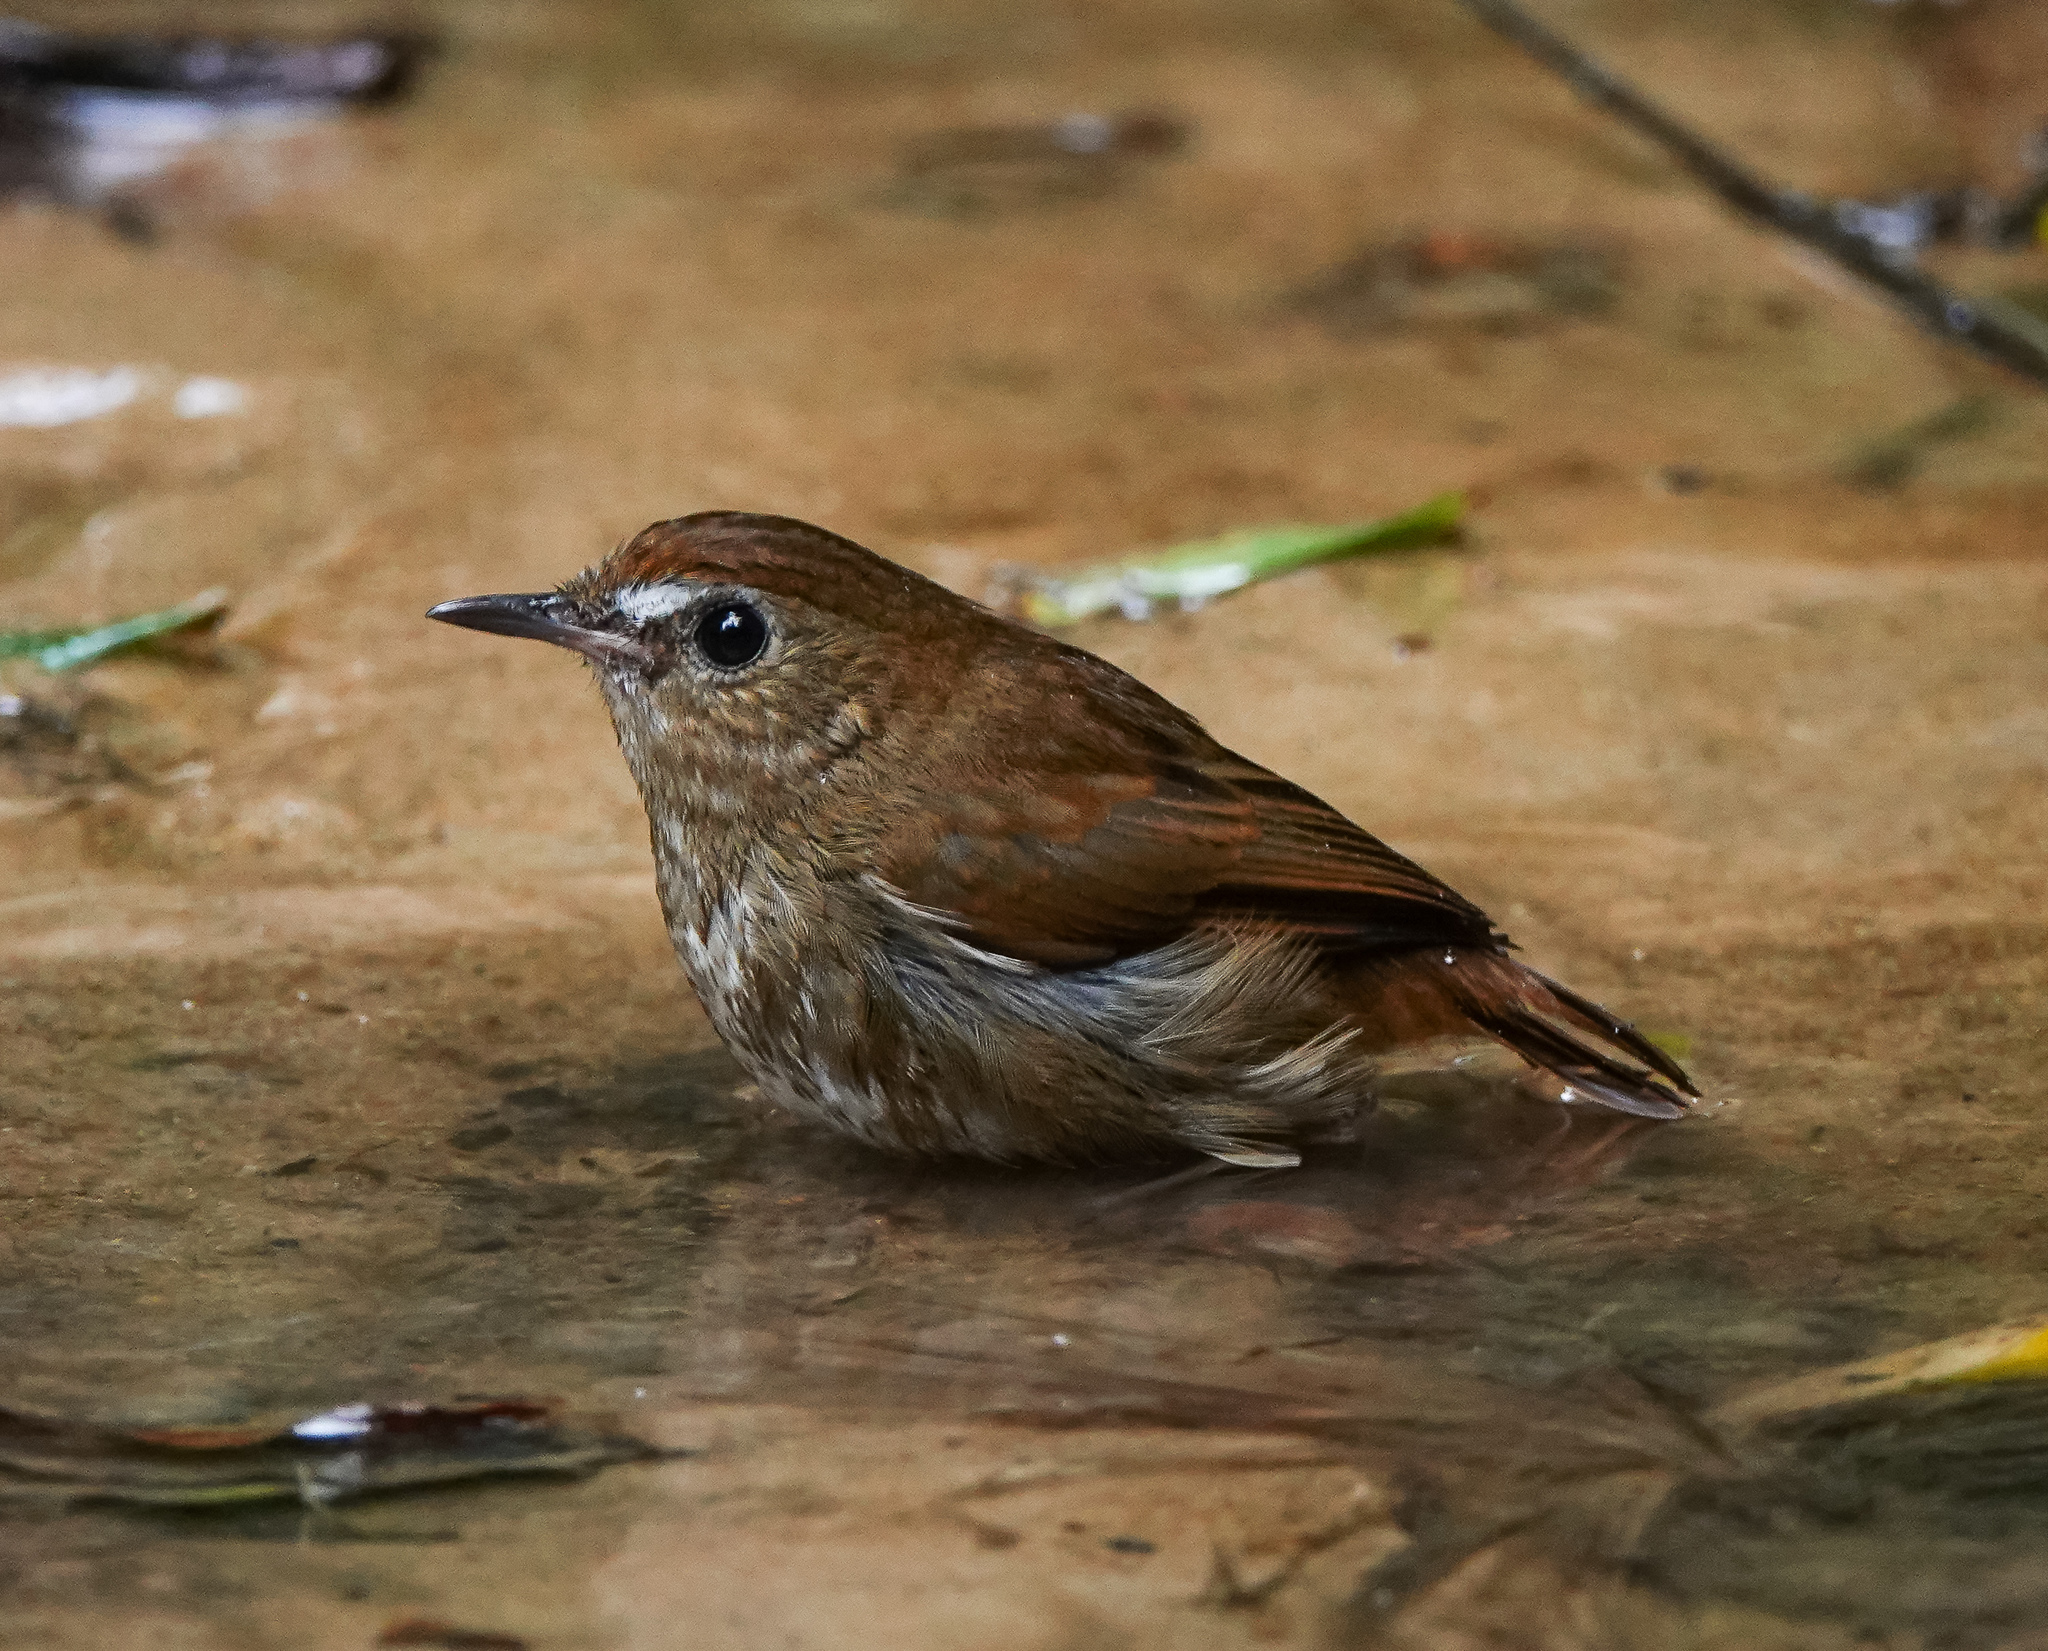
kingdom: Animalia
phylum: Chordata
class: Aves
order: Passeriformes
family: Muscicapidae
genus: Brachypteryx
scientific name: Brachypteryx leucophris
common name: Lesser shortwing
